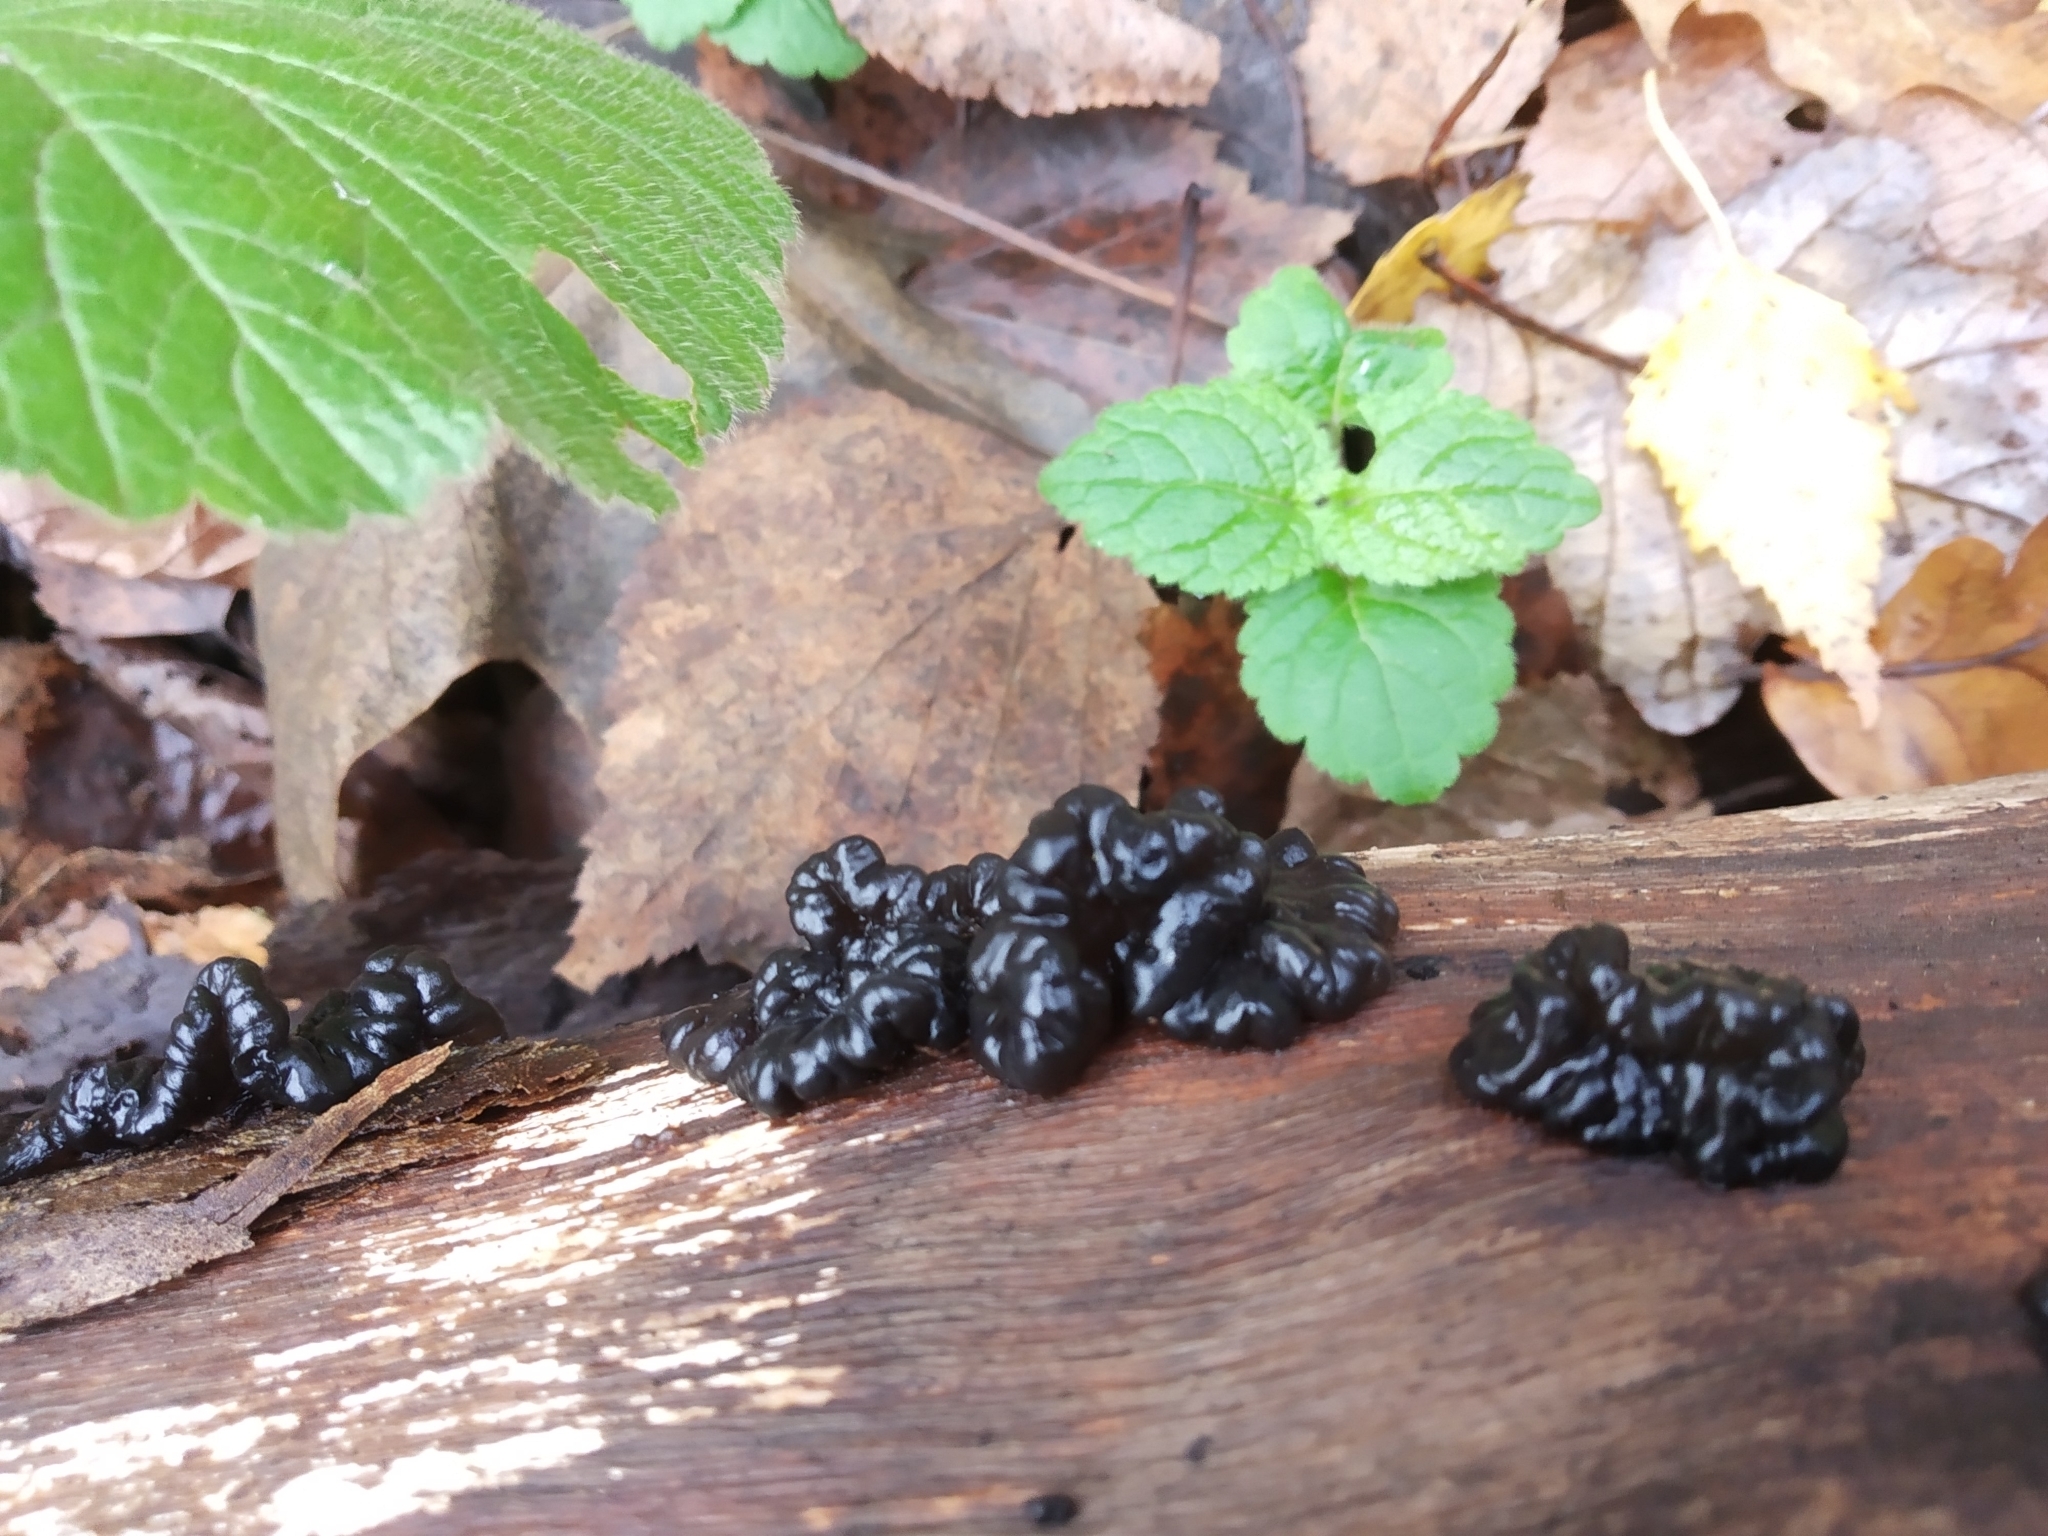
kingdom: Fungi
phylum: Basidiomycota
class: Agaricomycetes
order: Auriculariales
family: Auriculariaceae
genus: Exidia
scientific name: Exidia glandulosa
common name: Witches' butter
